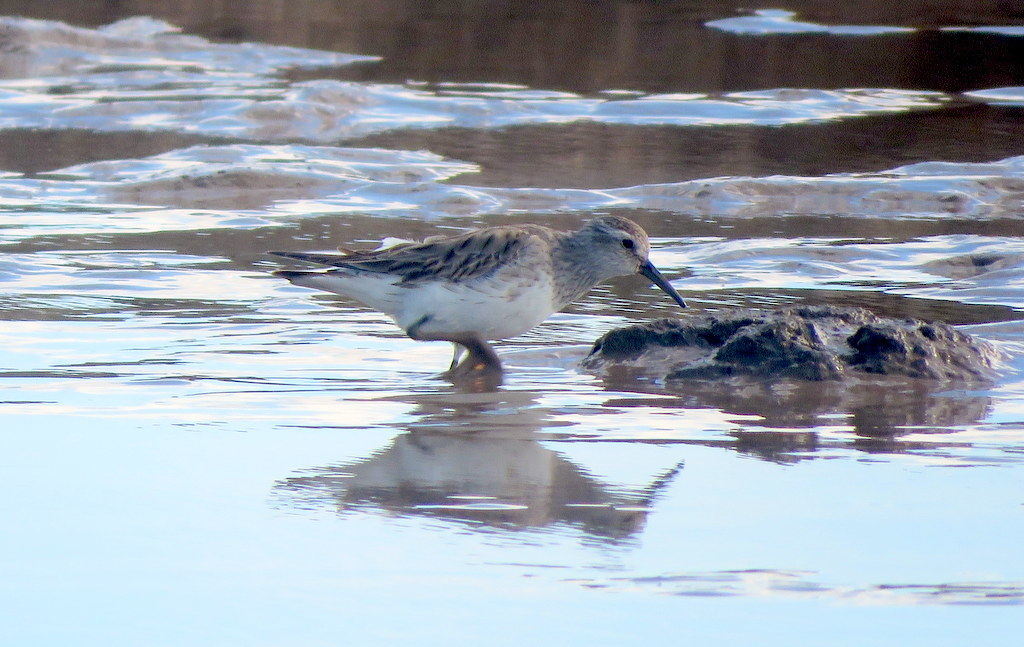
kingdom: Animalia
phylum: Chordata
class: Aves
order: Charadriiformes
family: Scolopacidae
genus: Calidris
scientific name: Calidris fuscicollis
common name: White-rumped sandpiper
